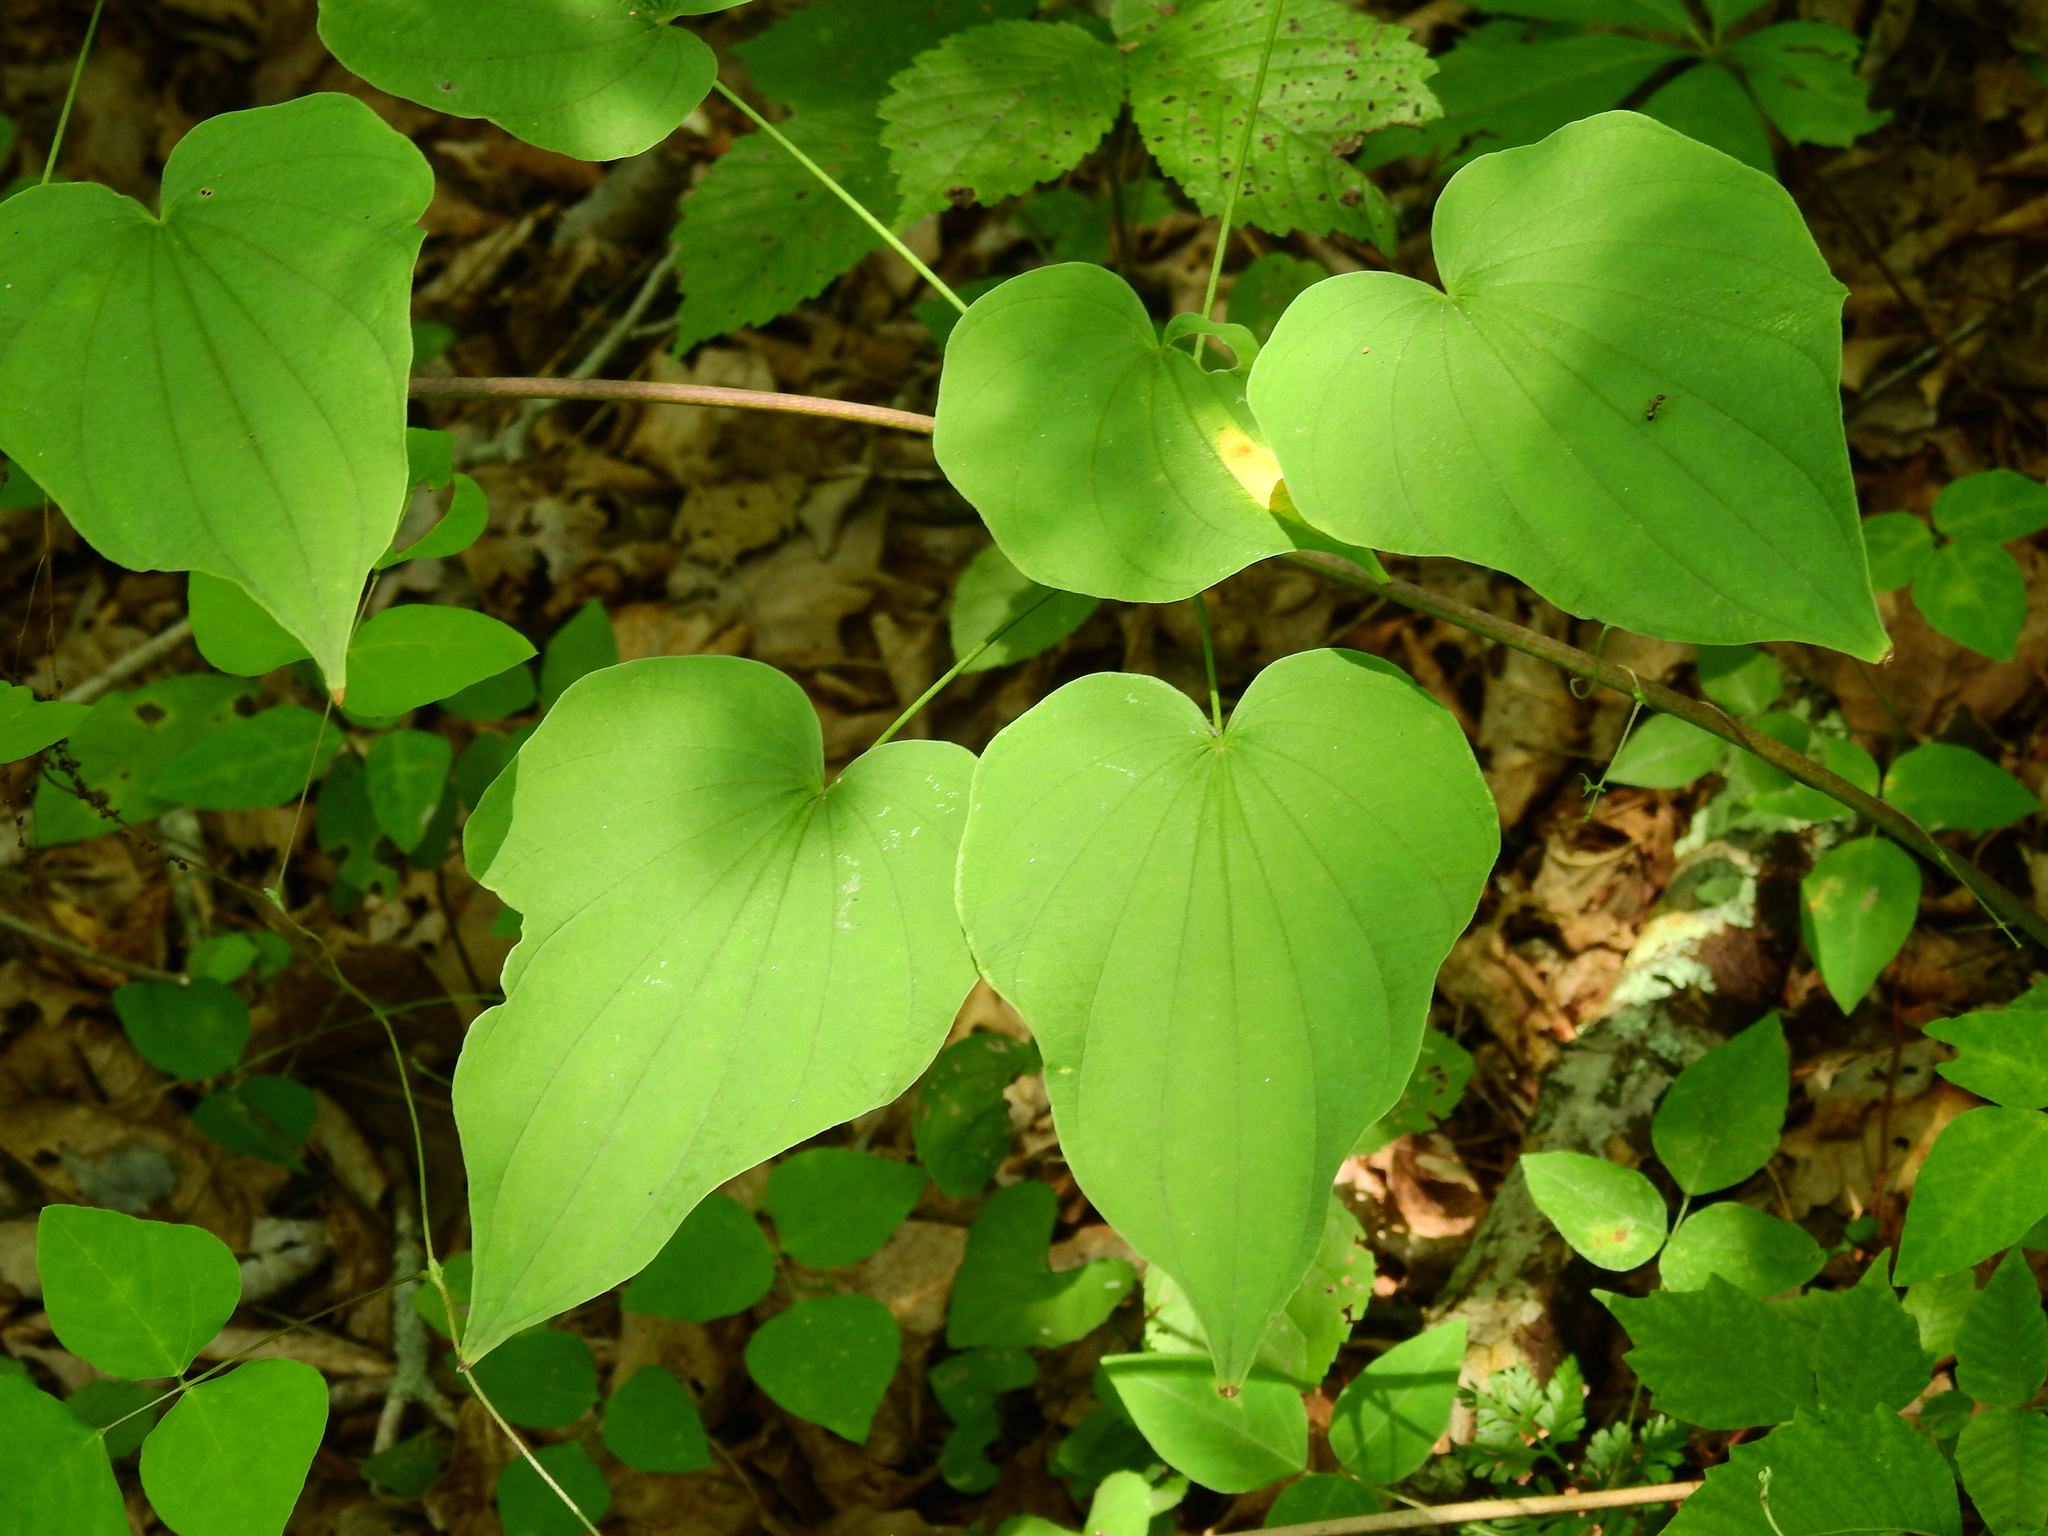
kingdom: Plantae
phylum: Tracheophyta
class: Liliopsida
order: Dioscoreales
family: Dioscoreaceae
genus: Dioscorea
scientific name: Dioscorea villosa
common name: Wild yam
